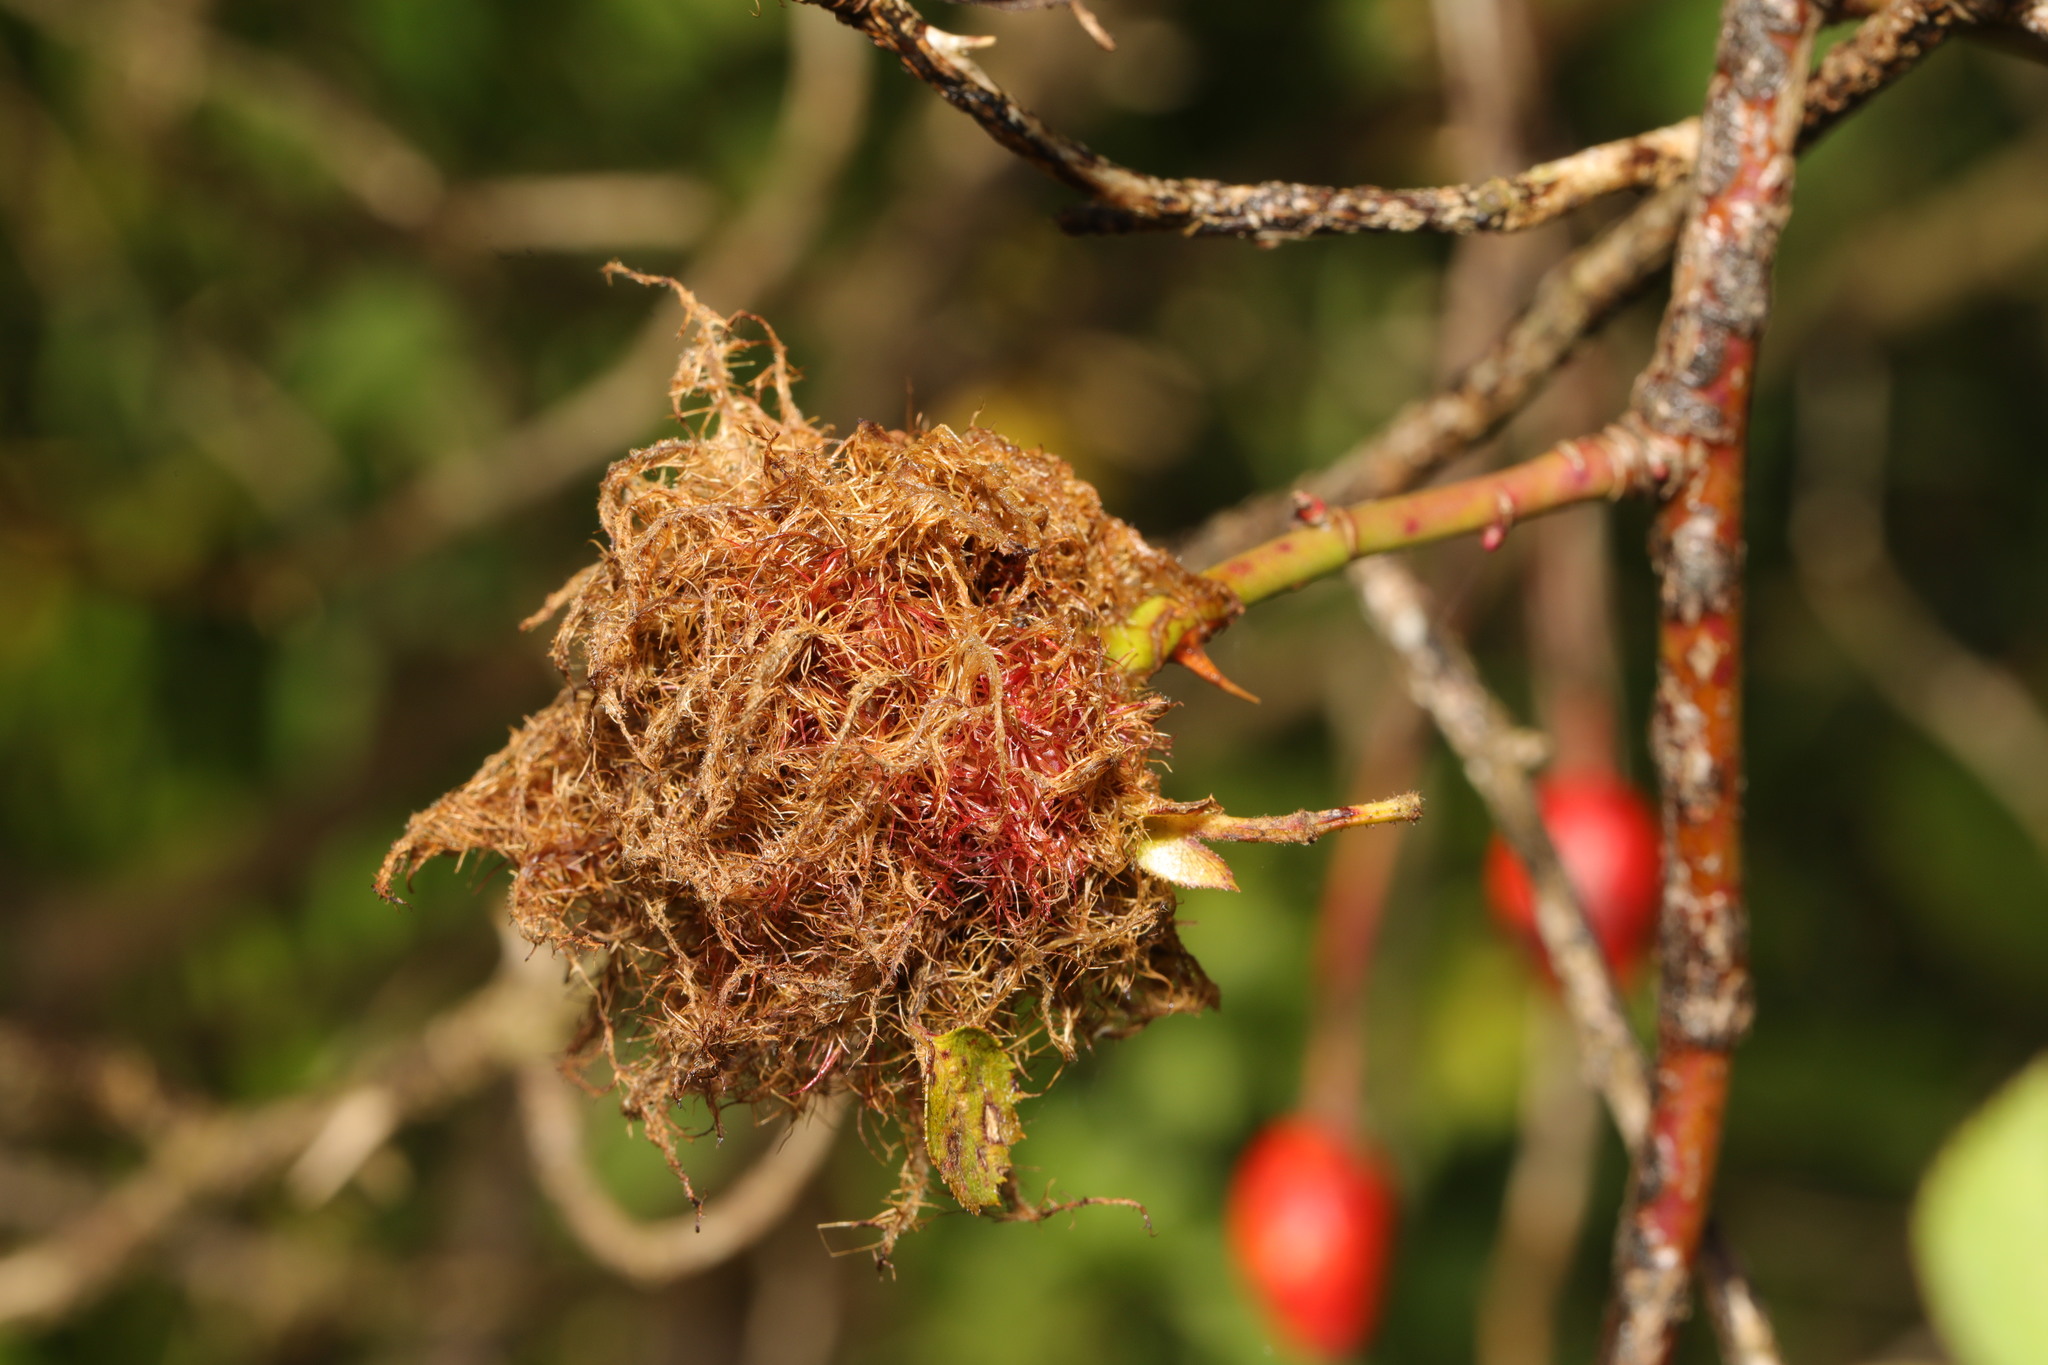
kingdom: Animalia
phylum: Arthropoda
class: Insecta
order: Hymenoptera
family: Cynipidae
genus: Diplolepis
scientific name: Diplolepis rosae
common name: Bedeguar gall
